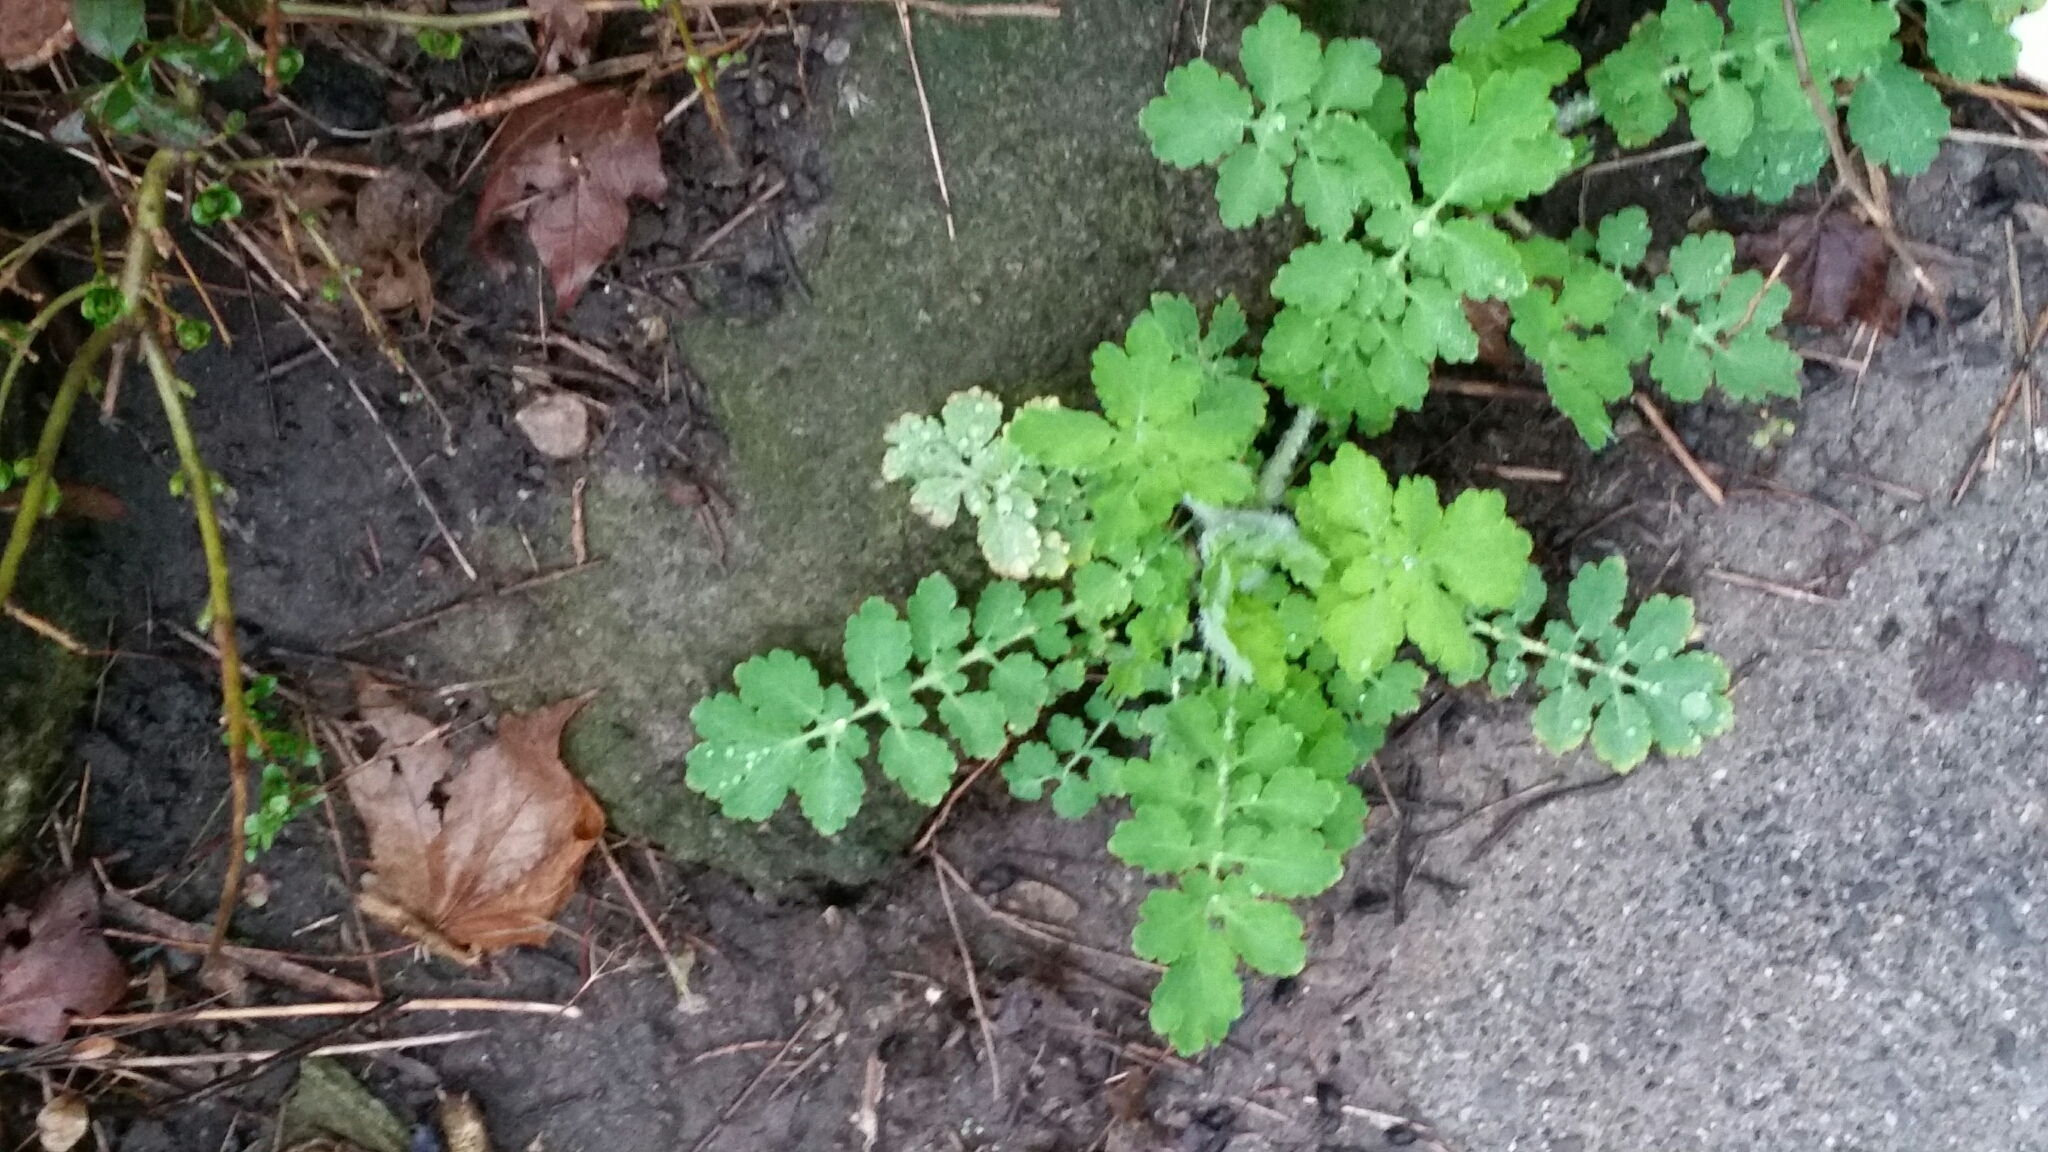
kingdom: Plantae
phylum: Tracheophyta
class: Magnoliopsida
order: Ranunculales
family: Papaveraceae
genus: Chelidonium
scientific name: Chelidonium majus
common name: Greater celandine
